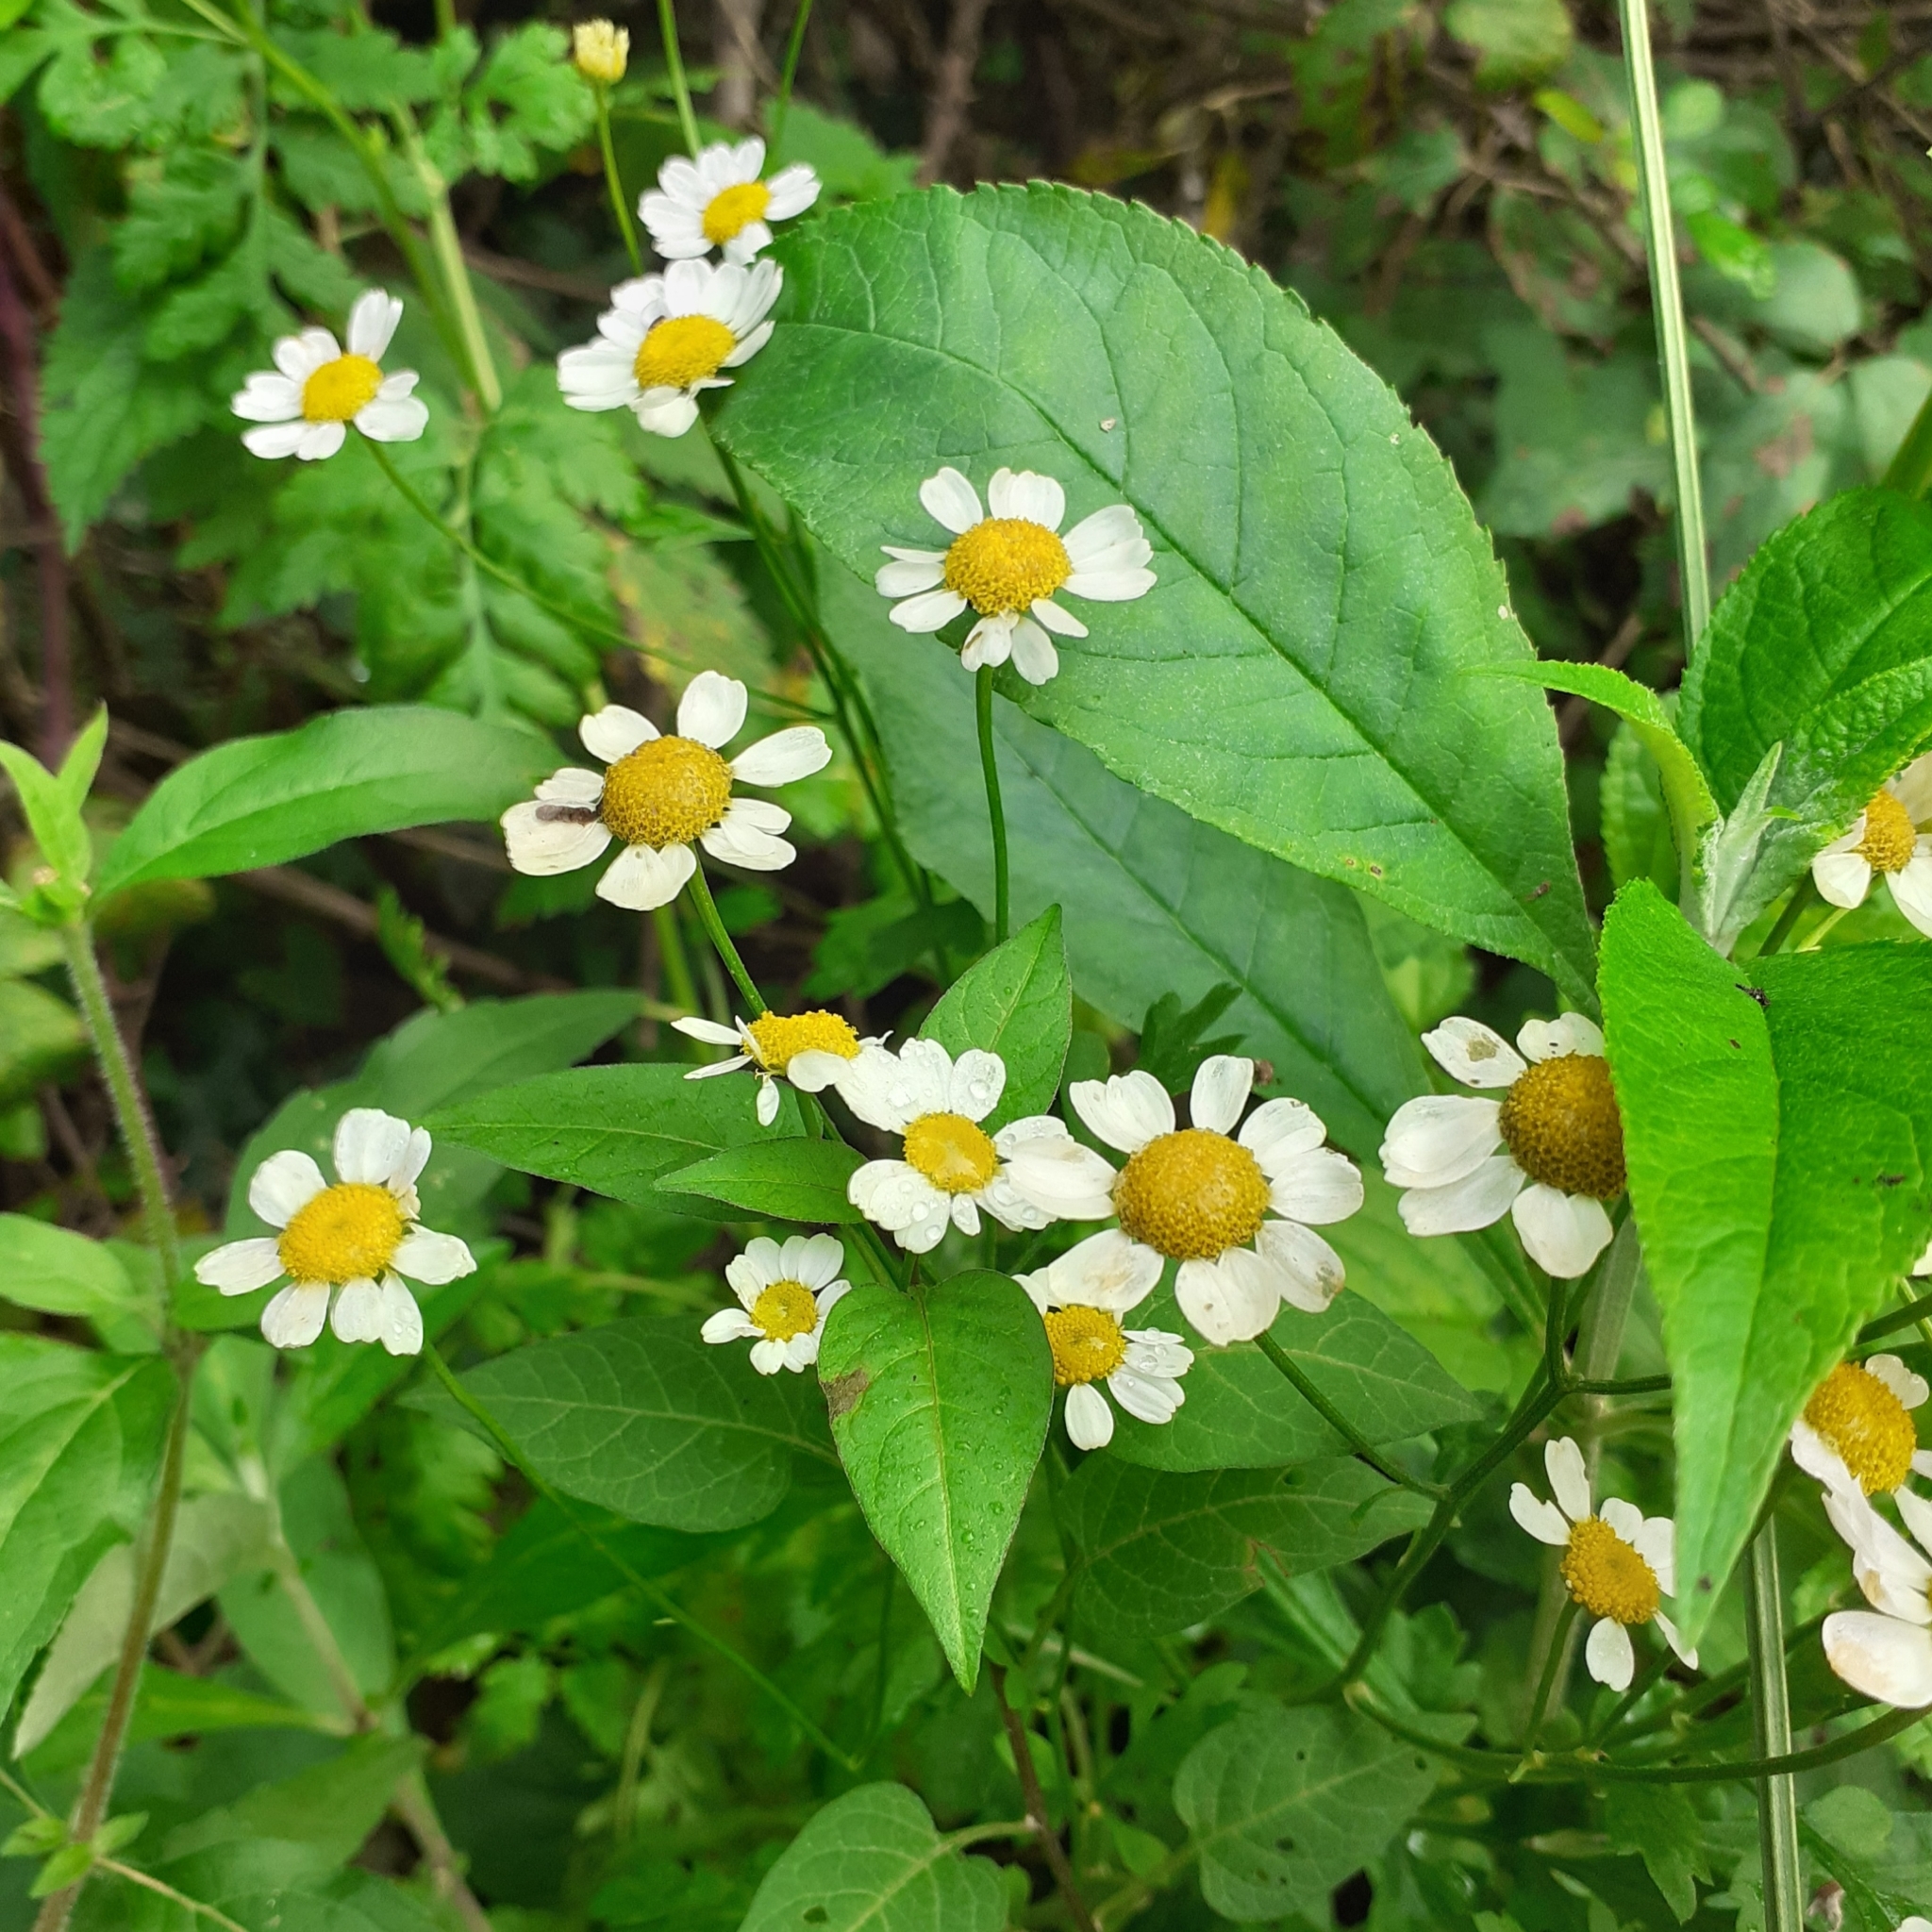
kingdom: Plantae
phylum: Tracheophyta
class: Magnoliopsida
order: Asterales
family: Asteraceae
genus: Tanacetum
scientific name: Tanacetum parthenium
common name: Feverfew
